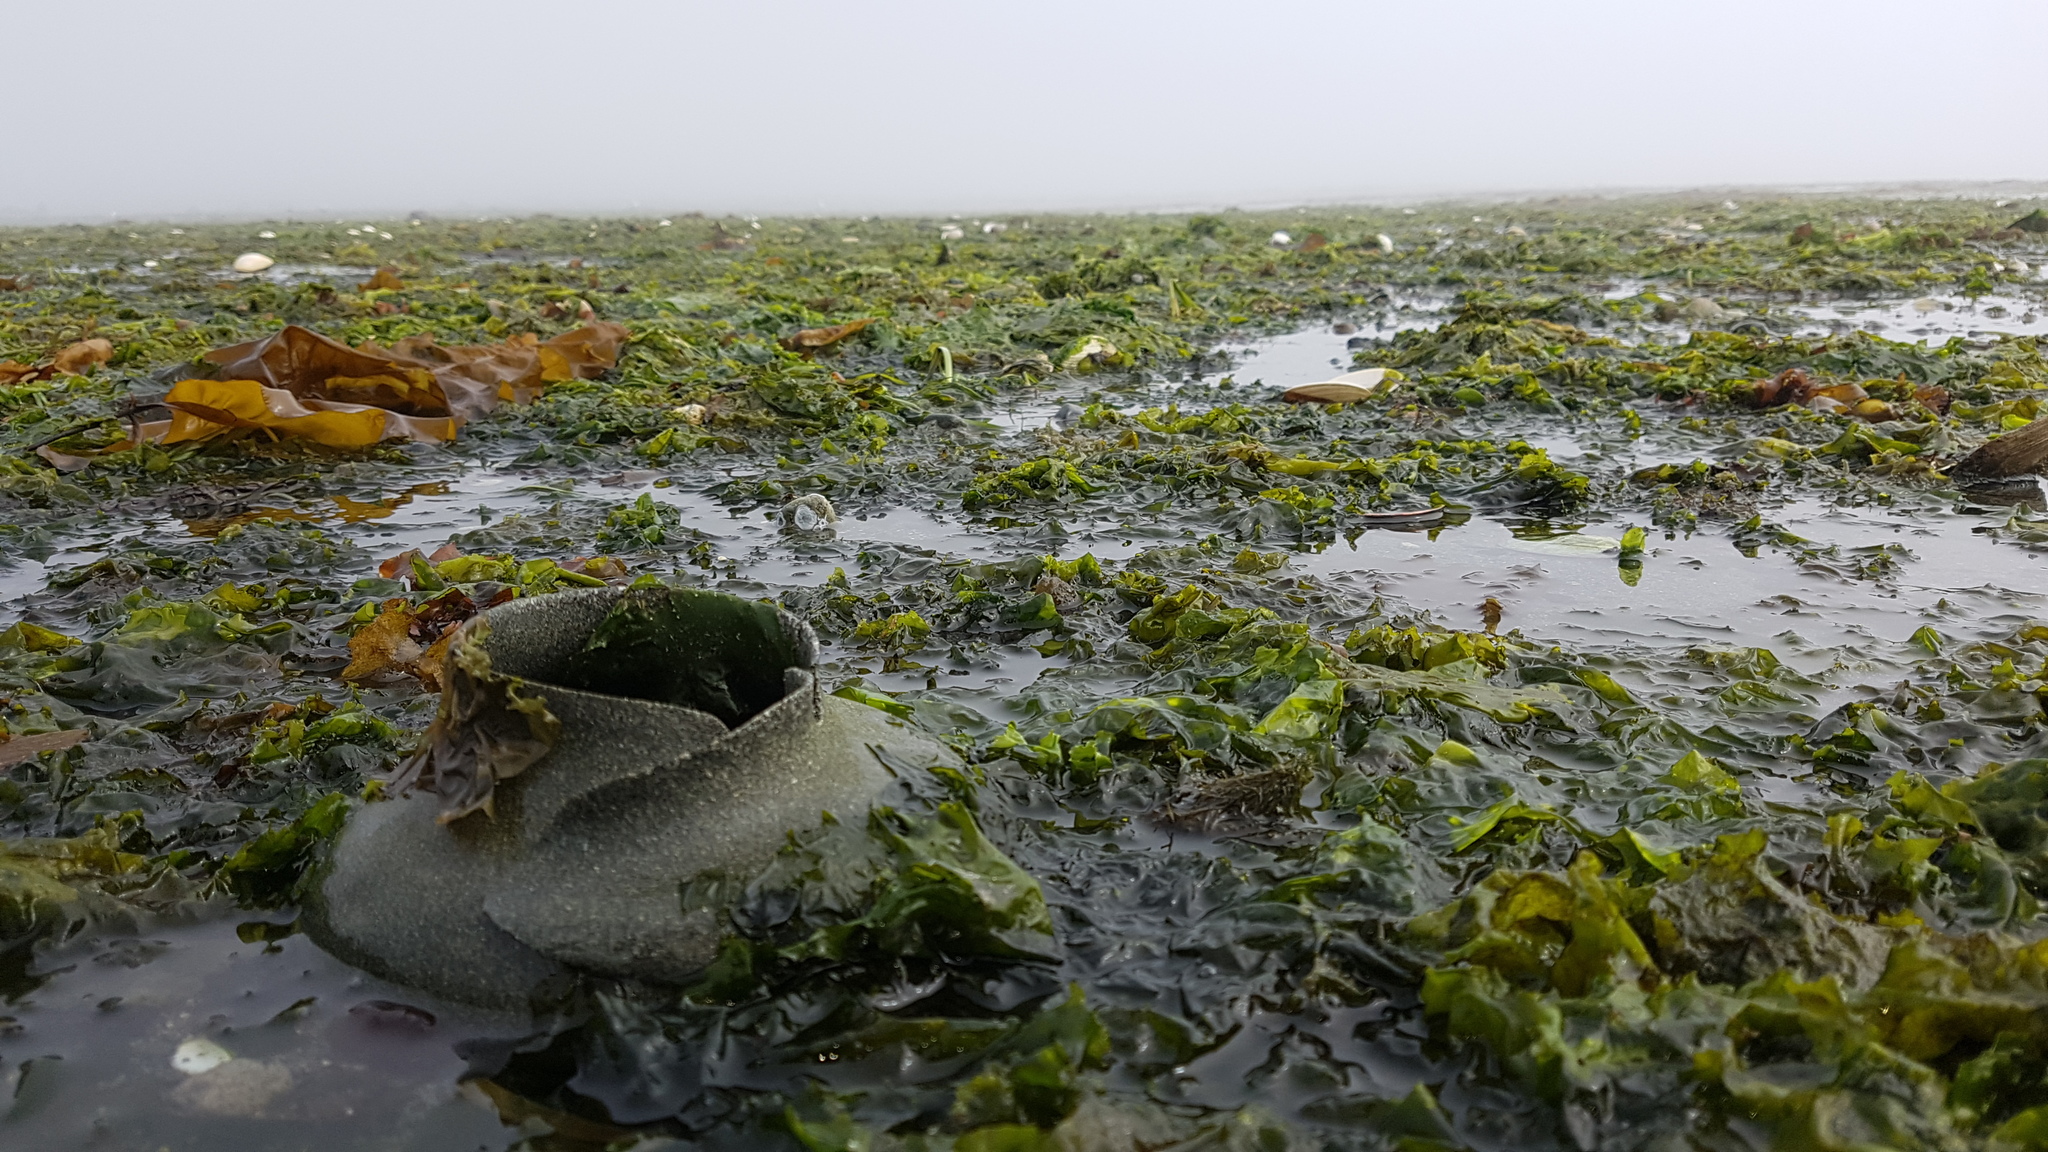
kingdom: Animalia
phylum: Mollusca
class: Gastropoda
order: Littorinimorpha
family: Naticidae
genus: Neverita
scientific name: Neverita lewisii
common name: Lewis' moonsnail
